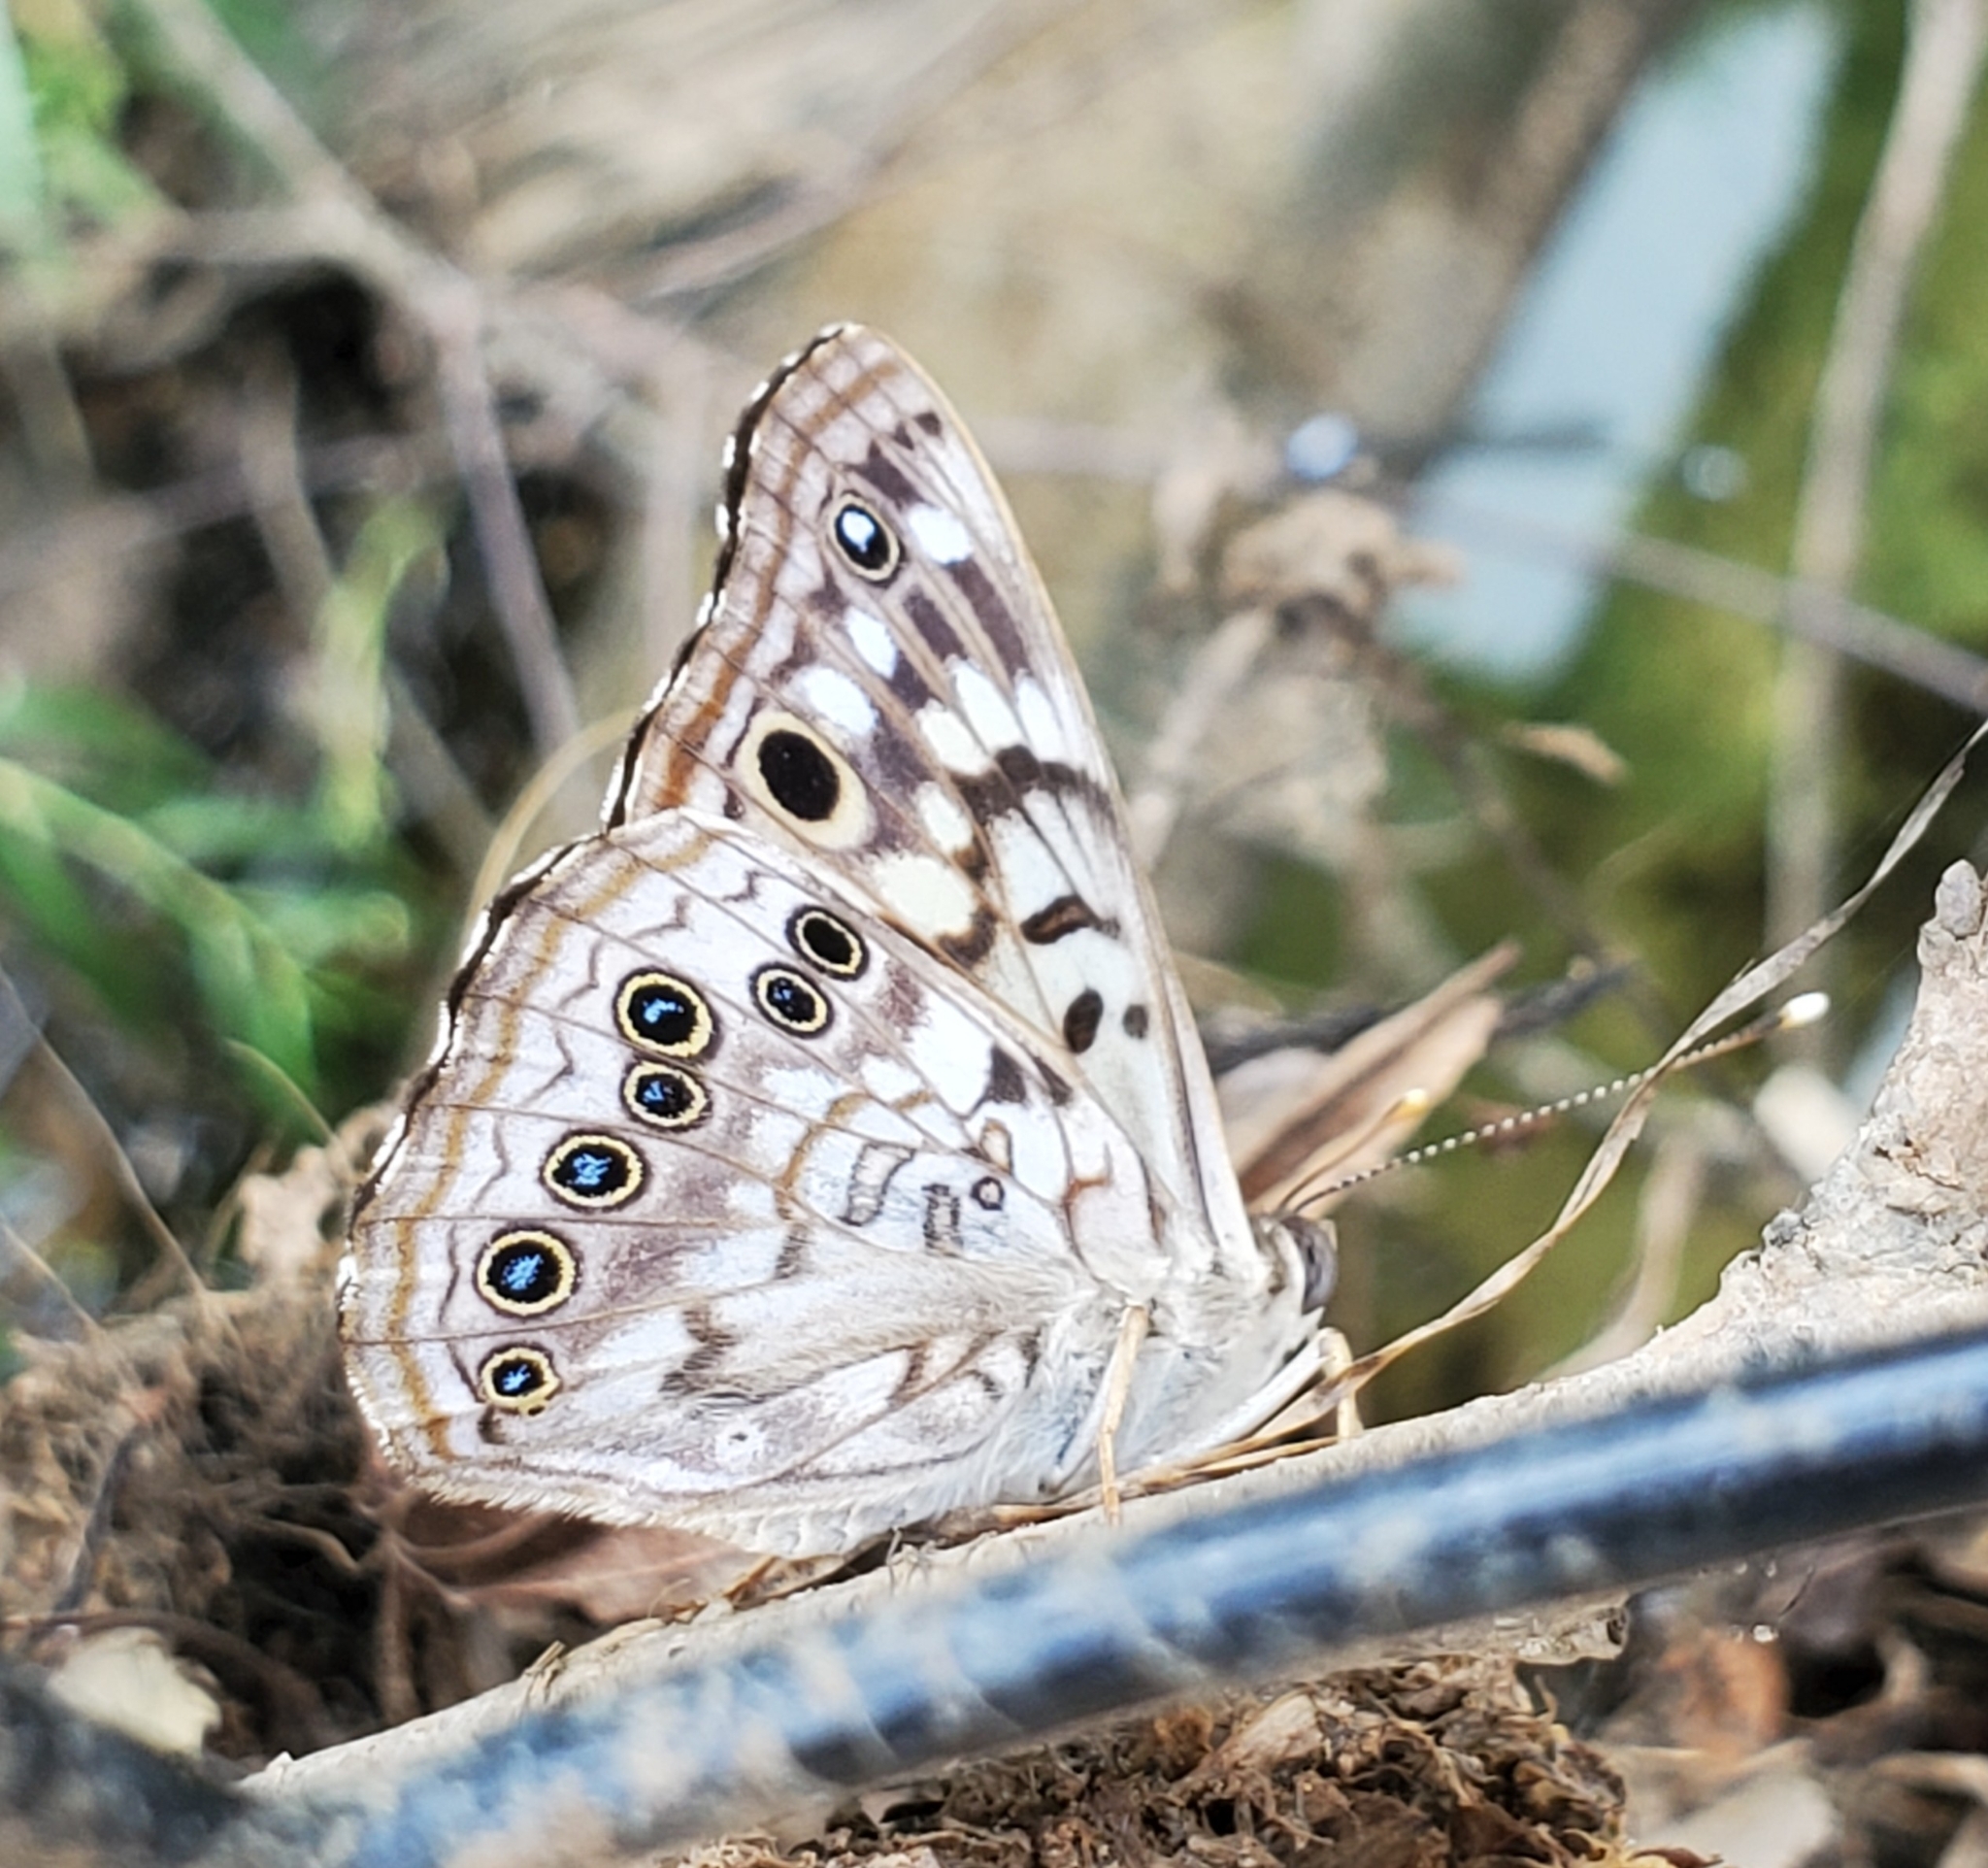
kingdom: Animalia
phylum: Arthropoda
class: Insecta
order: Lepidoptera
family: Nymphalidae
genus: Asterocampa
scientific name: Asterocampa celtis
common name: Hackberry emperor
